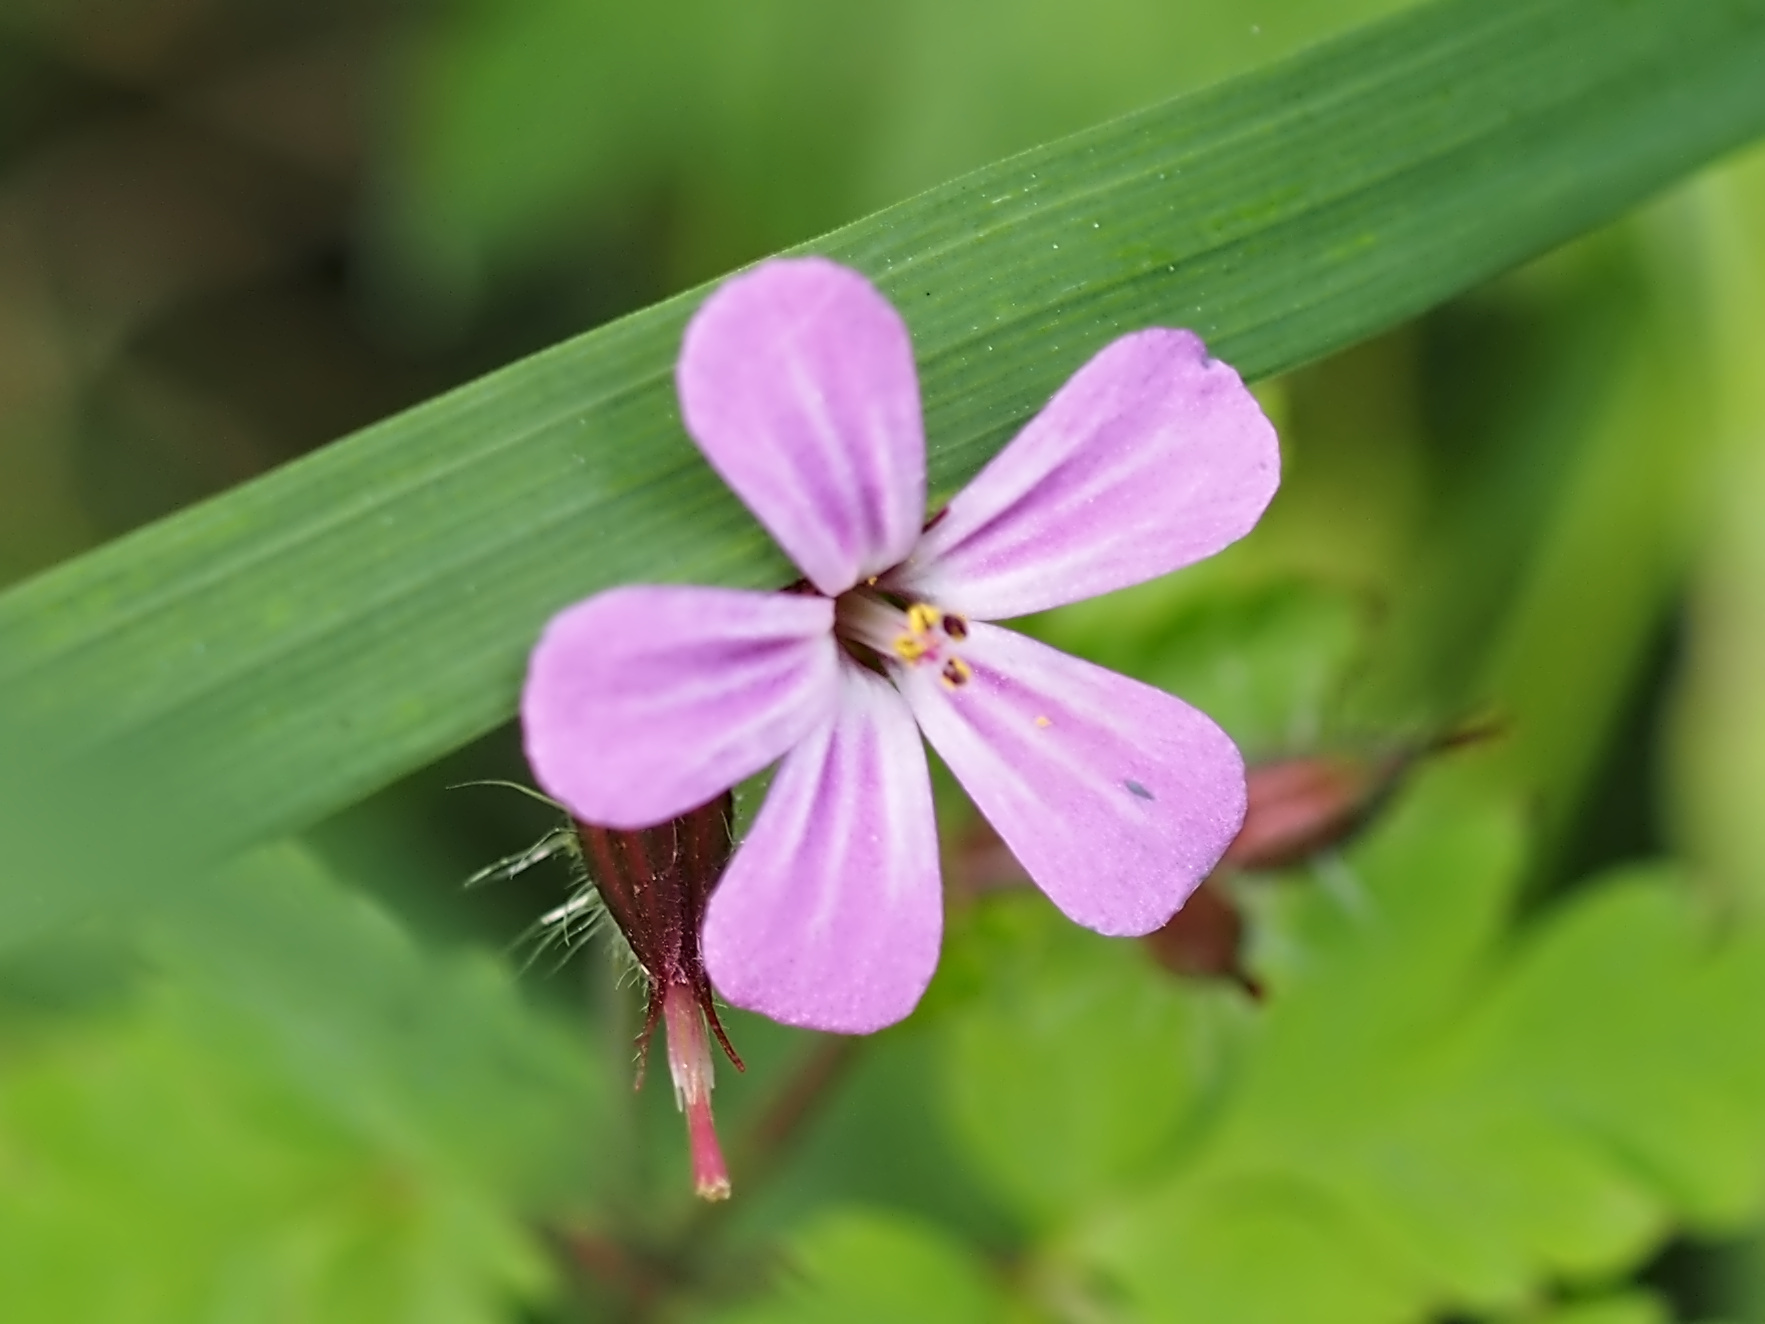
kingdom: Plantae
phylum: Tracheophyta
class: Magnoliopsida
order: Geraniales
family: Geraniaceae
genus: Geranium
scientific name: Geranium robertianum
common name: Herb-robert
